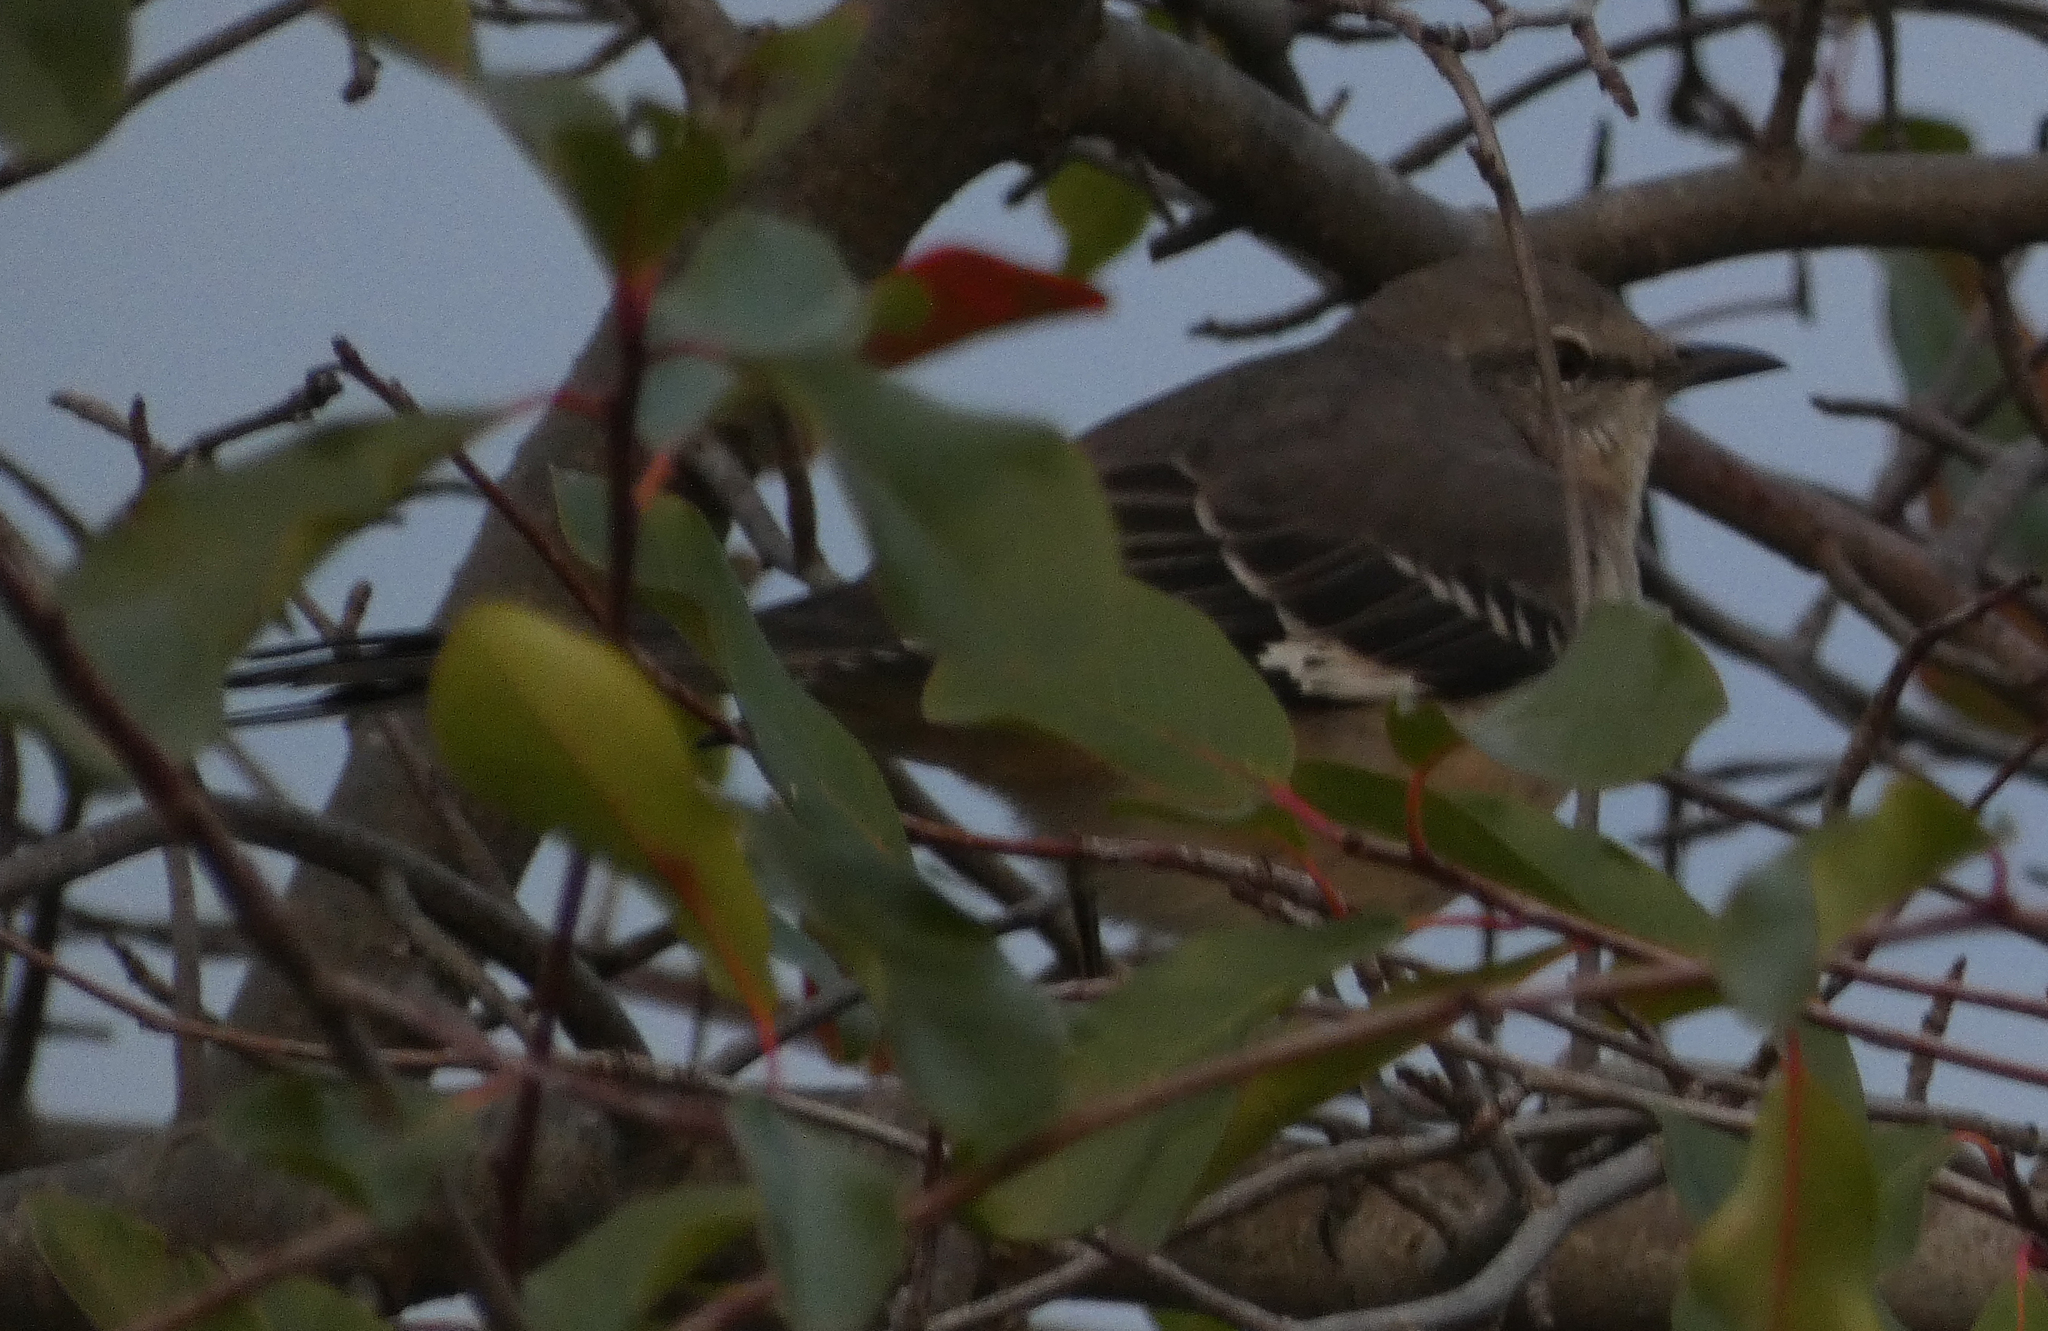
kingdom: Animalia
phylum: Chordata
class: Aves
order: Passeriformes
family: Mimidae
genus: Mimus
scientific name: Mimus polyglottos
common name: Northern mockingbird
